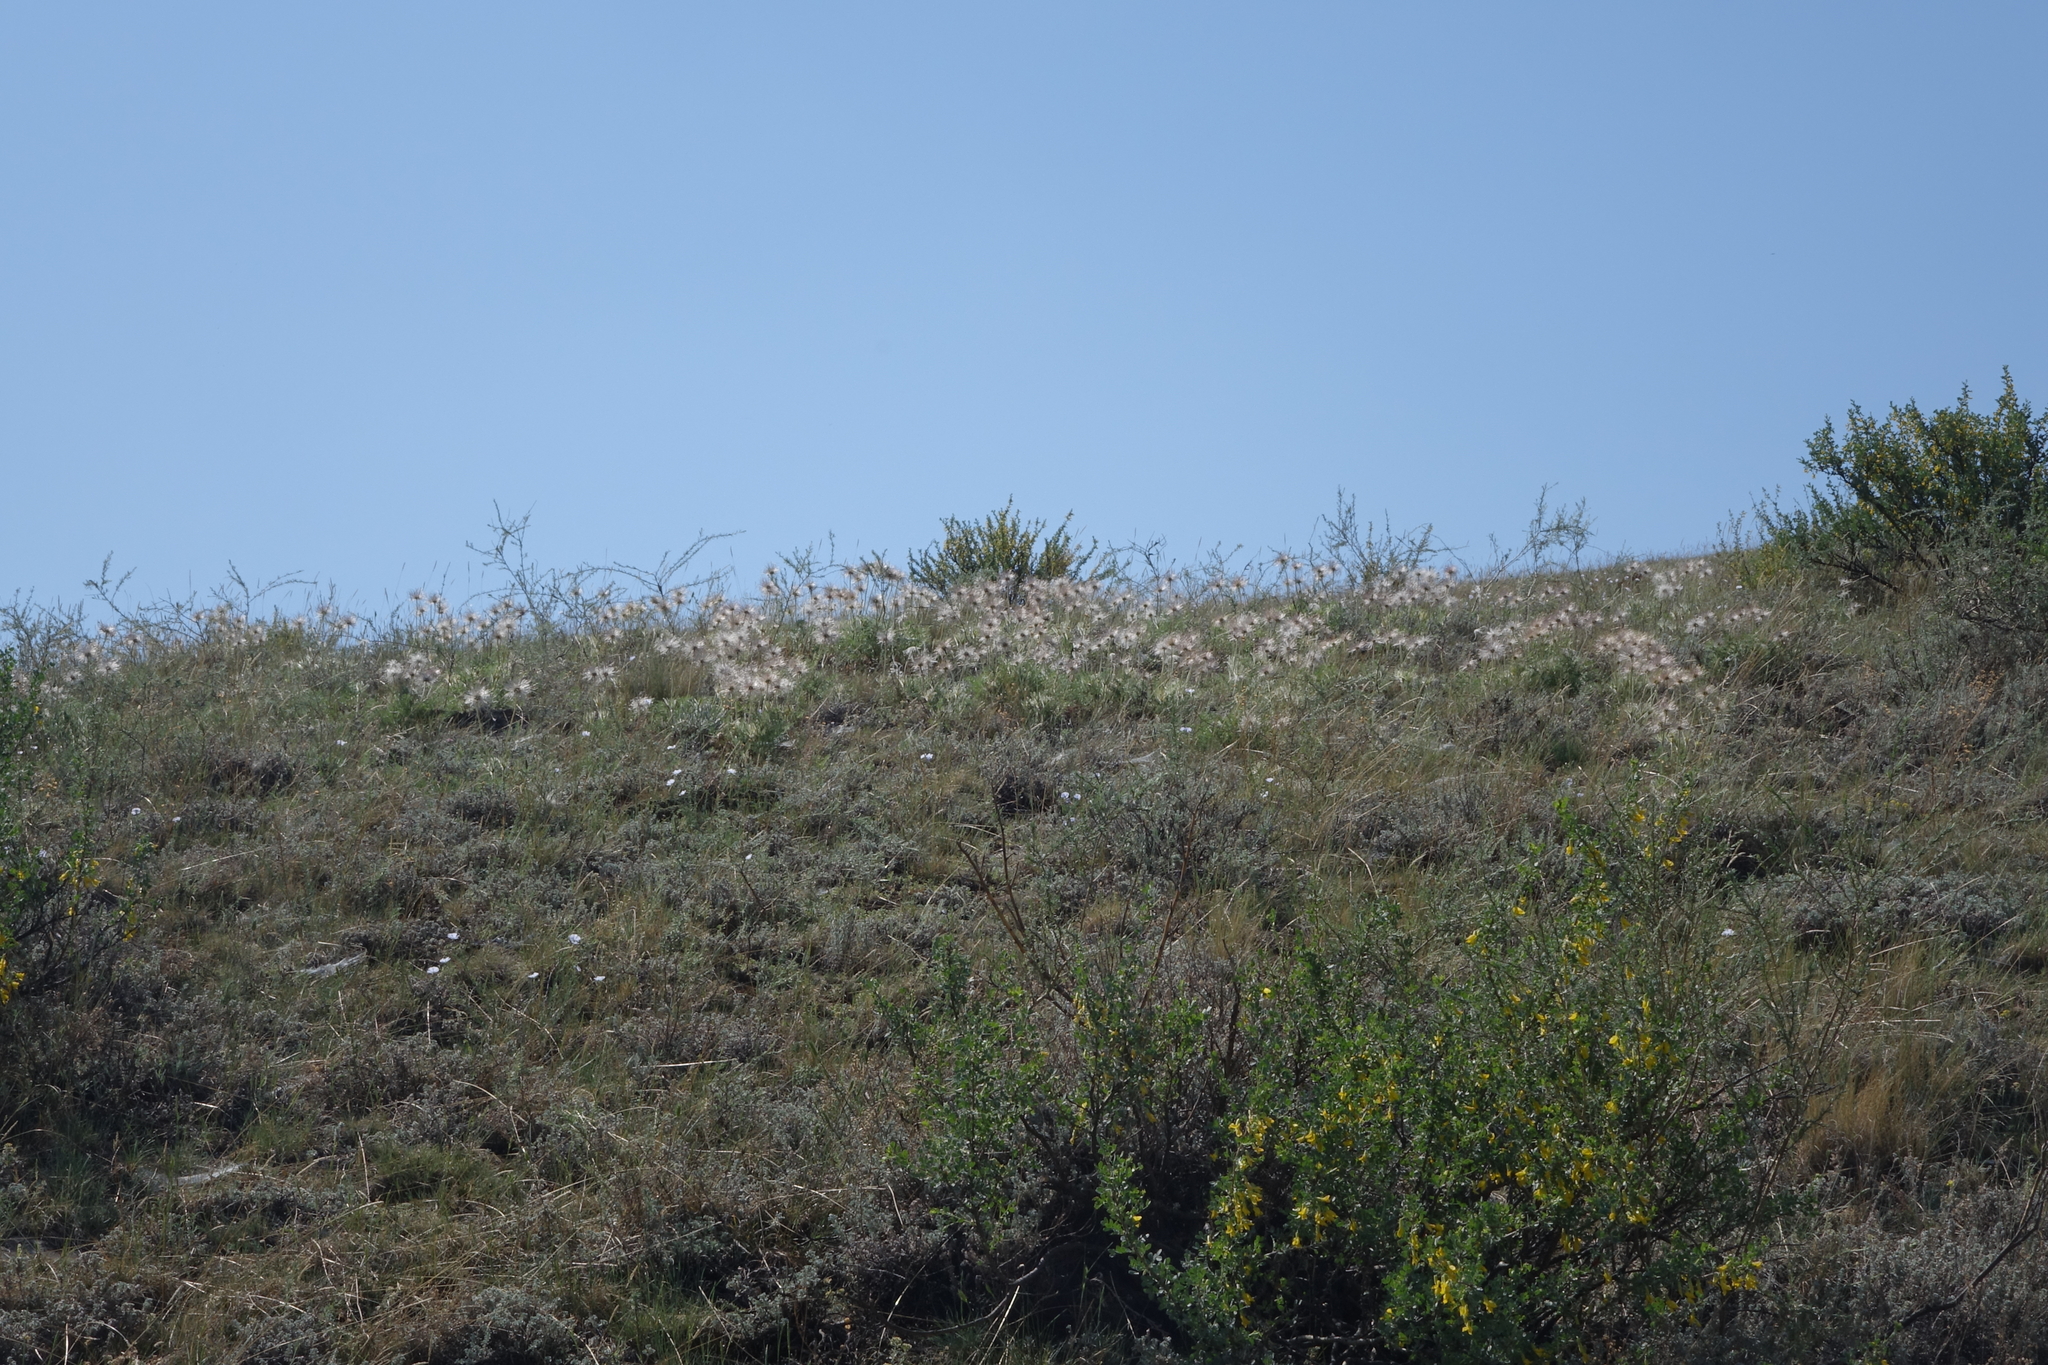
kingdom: Plantae
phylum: Tracheophyta
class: Magnoliopsida
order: Ranunculales
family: Ranunculaceae
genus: Pulsatilla
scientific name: Pulsatilla turczaninovii
